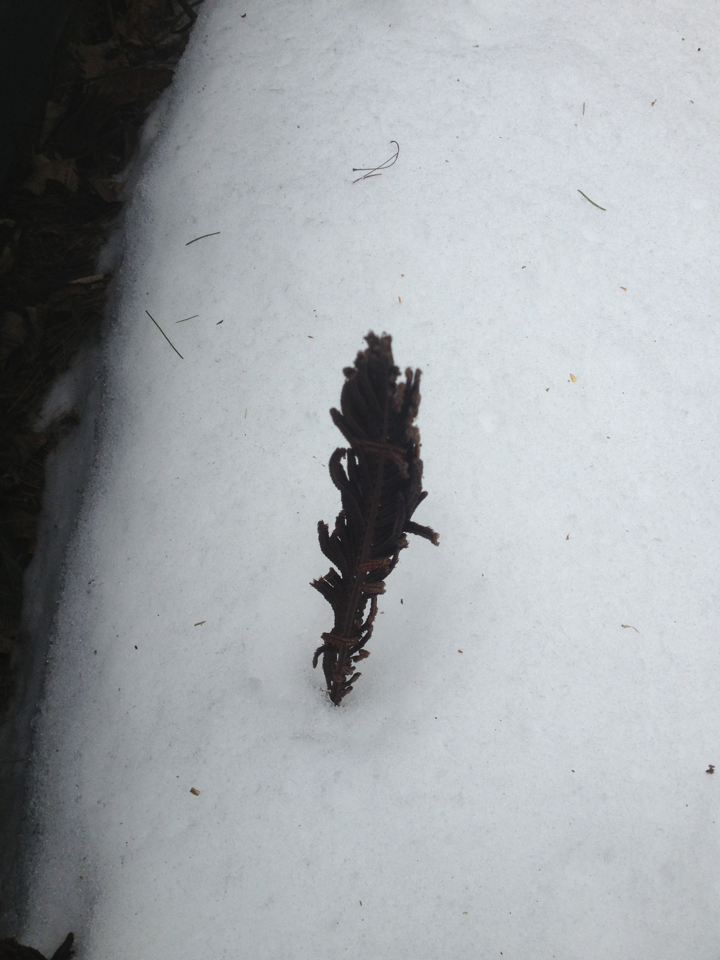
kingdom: Plantae
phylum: Tracheophyta
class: Polypodiopsida
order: Polypodiales
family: Onocleaceae
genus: Matteuccia
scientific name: Matteuccia struthiopteris
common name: Ostrich fern
